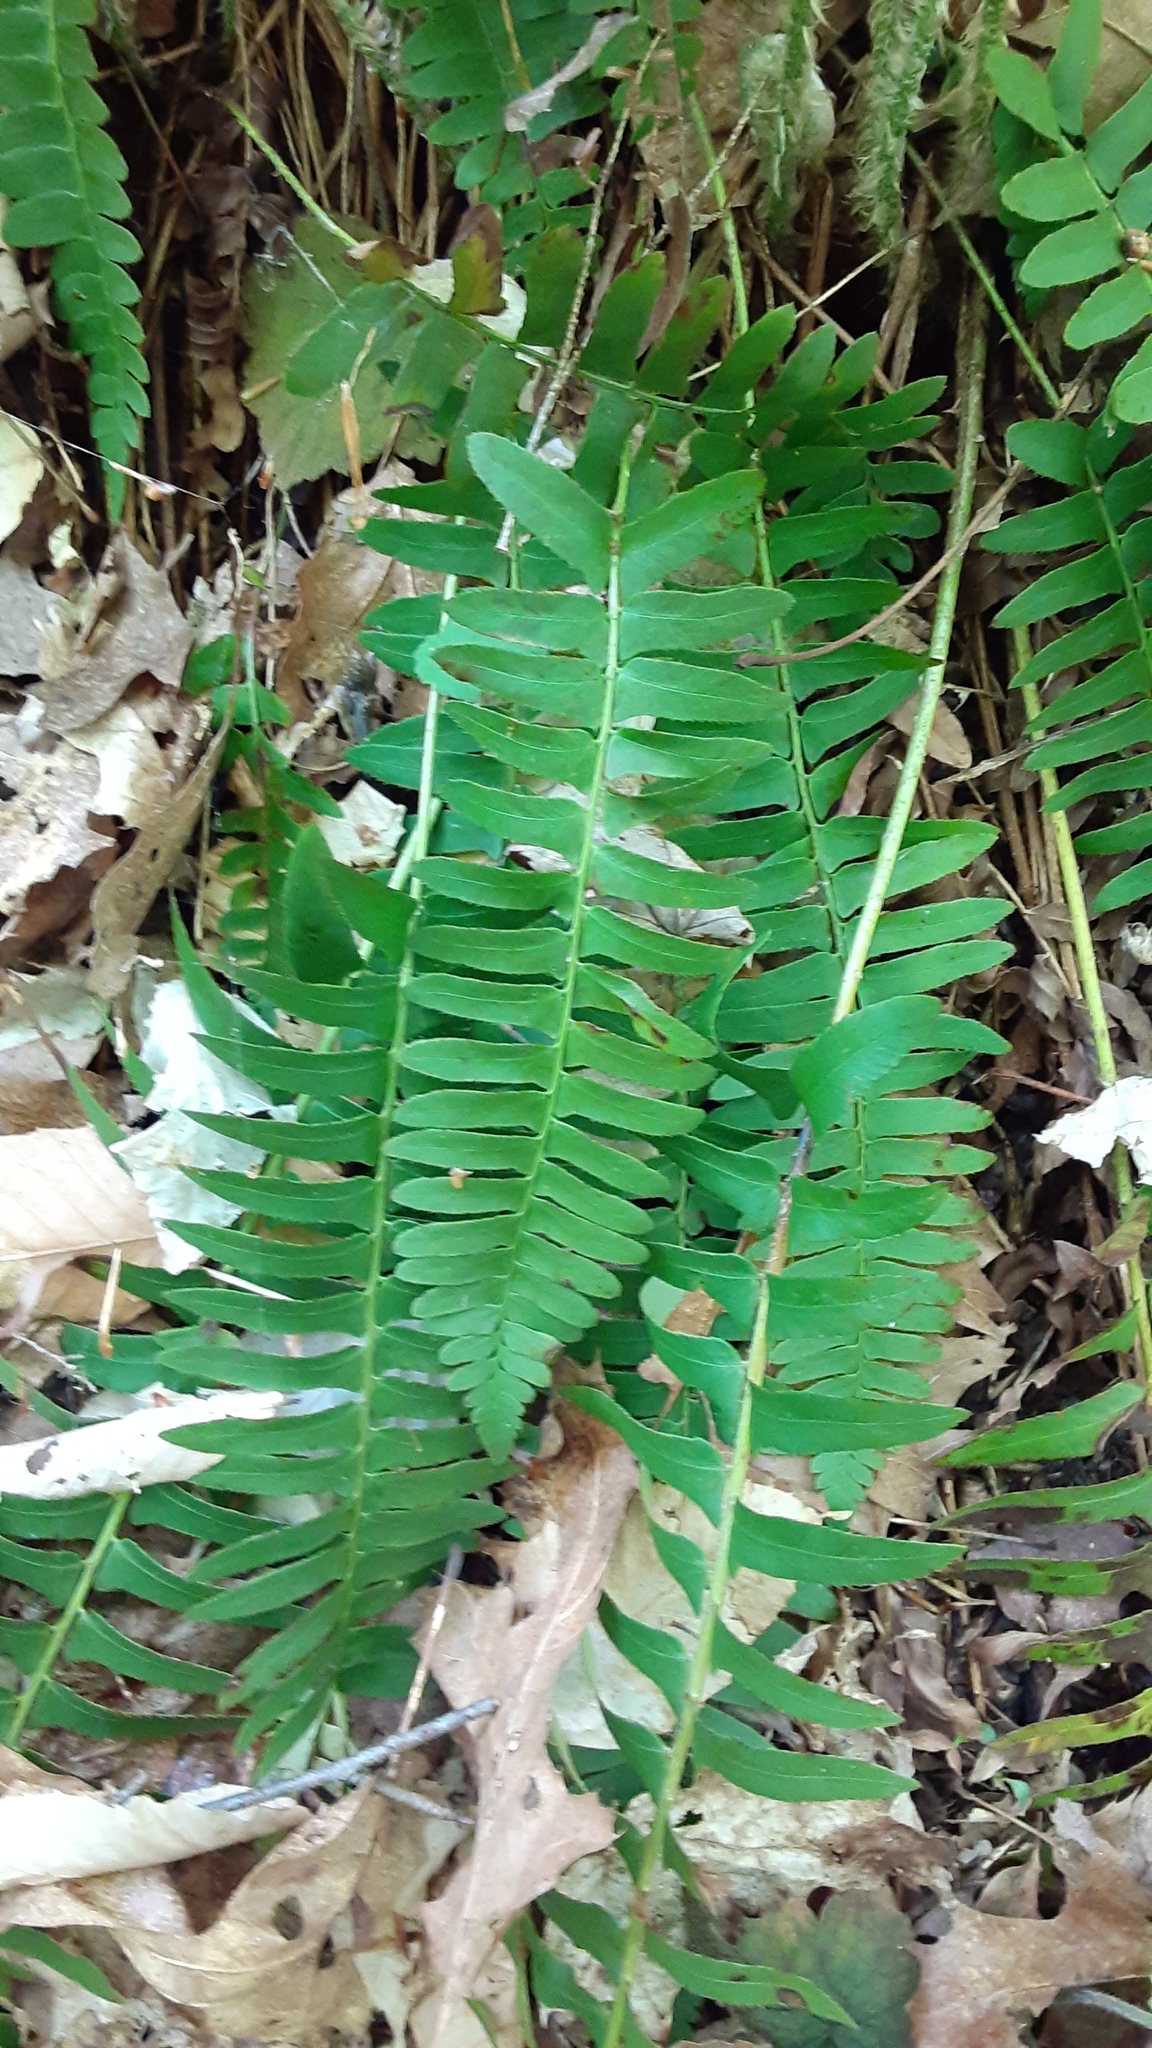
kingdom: Plantae
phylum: Tracheophyta
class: Polypodiopsida
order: Polypodiales
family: Dryopteridaceae
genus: Polystichum
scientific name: Polystichum acrostichoides
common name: Christmas fern
